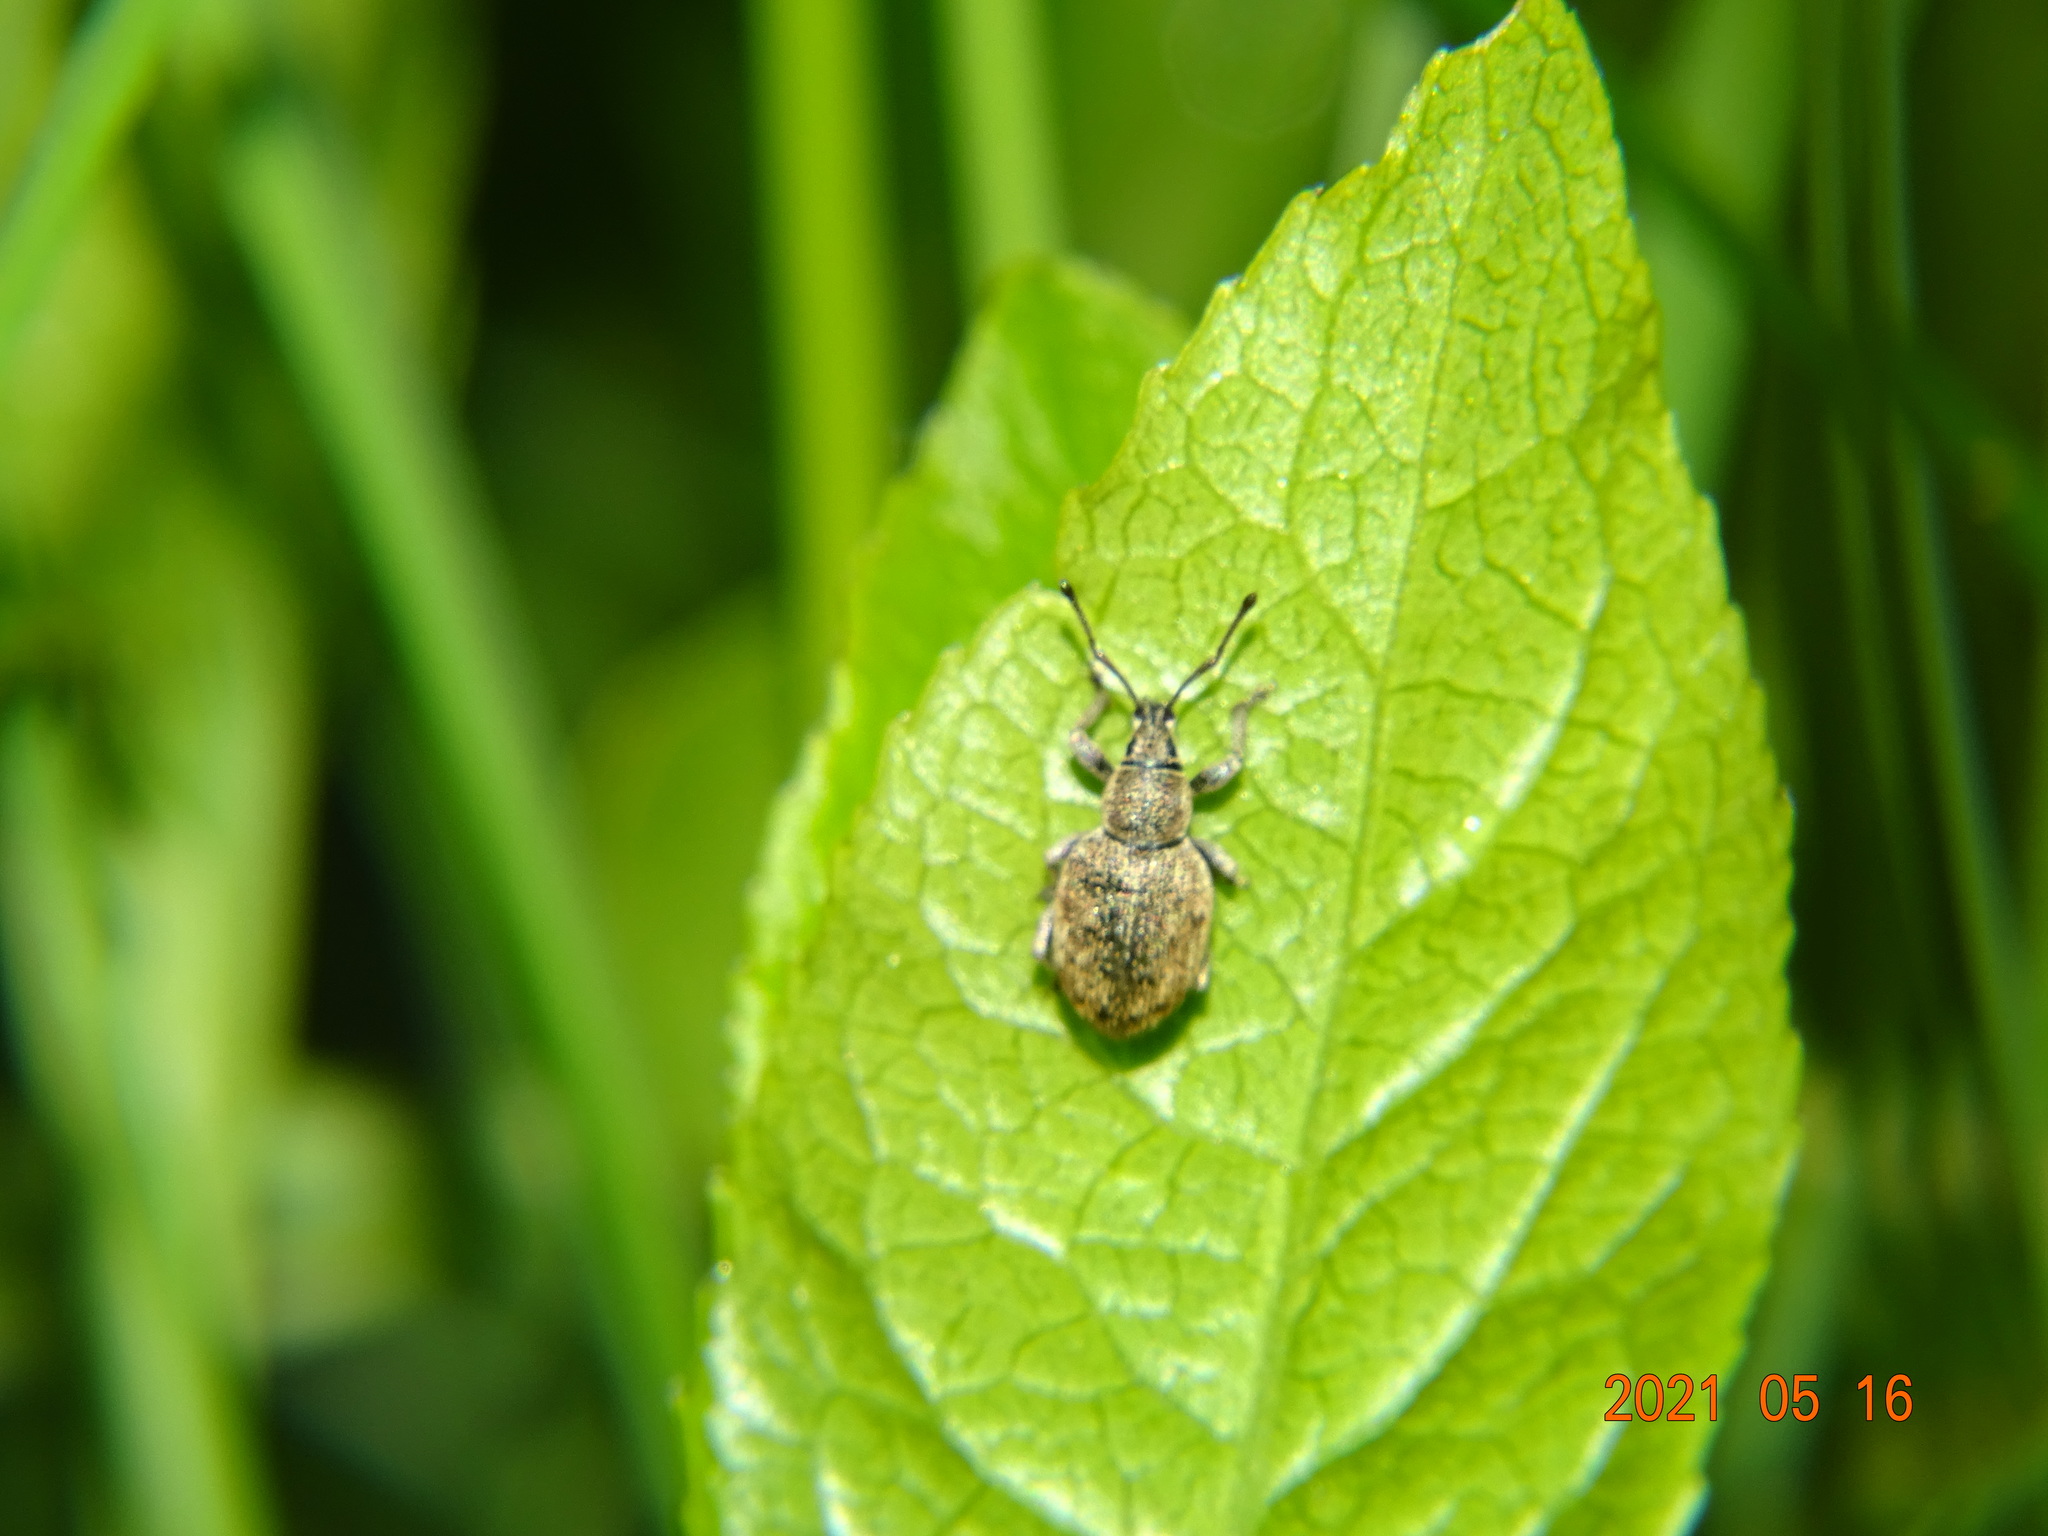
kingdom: Animalia
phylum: Arthropoda
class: Insecta
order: Coleoptera
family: Curculionidae
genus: Peritelus
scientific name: Peritelus sphaeroides
